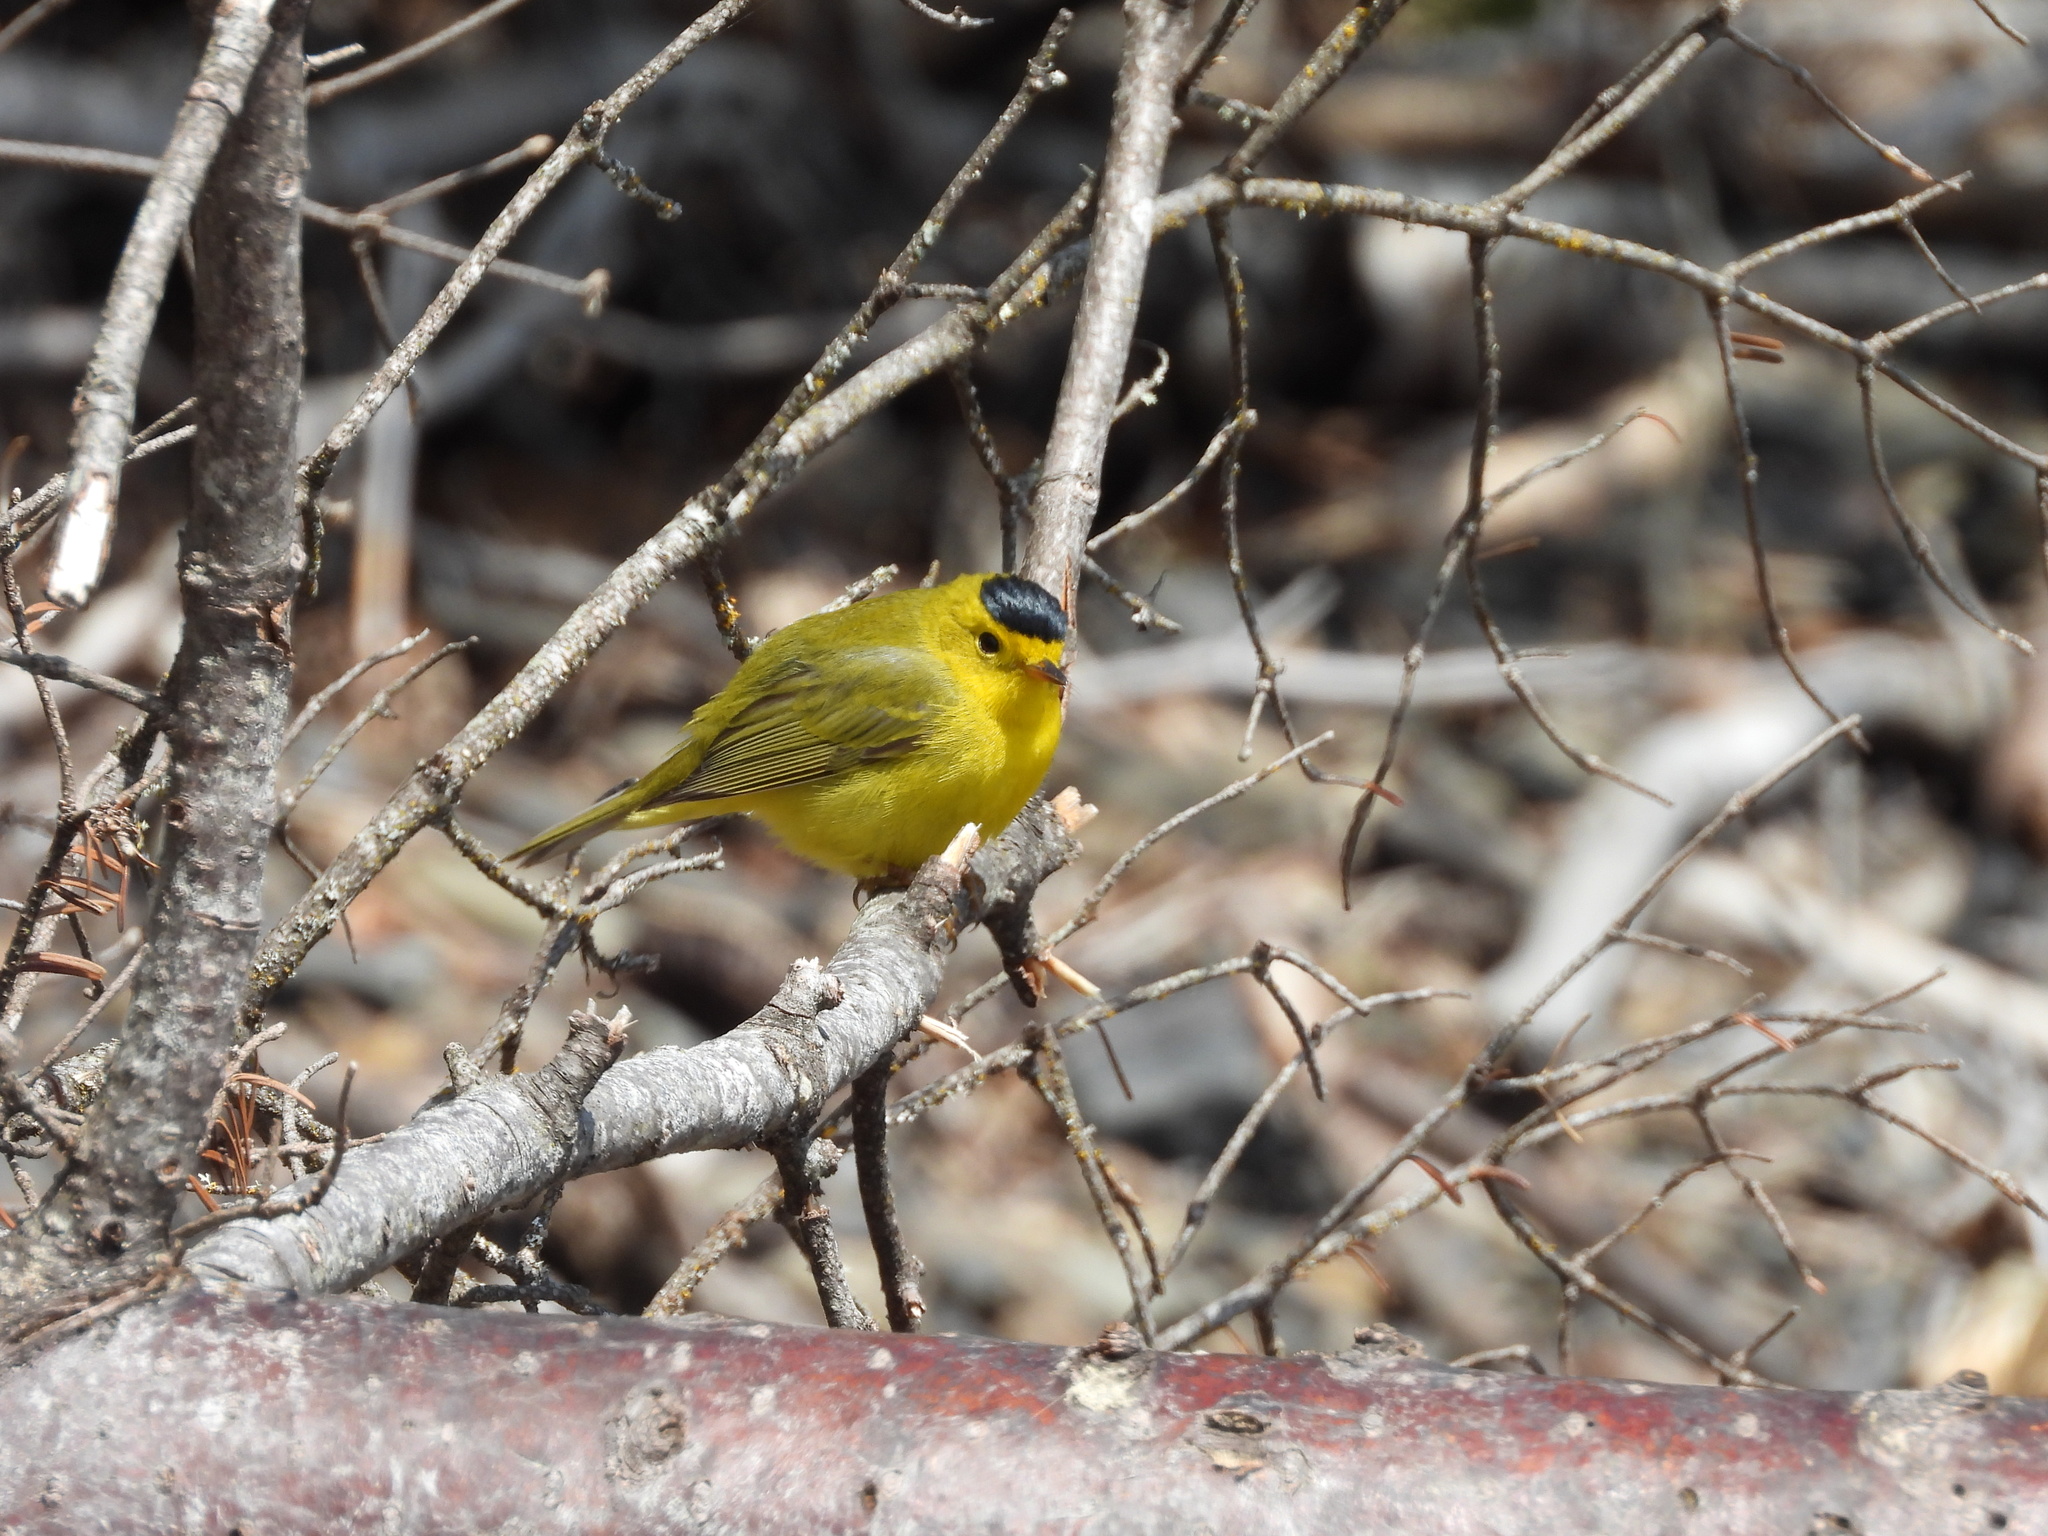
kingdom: Animalia
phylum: Chordata
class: Aves
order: Passeriformes
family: Parulidae
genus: Cardellina
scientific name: Cardellina pusilla
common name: Wilson's warbler
